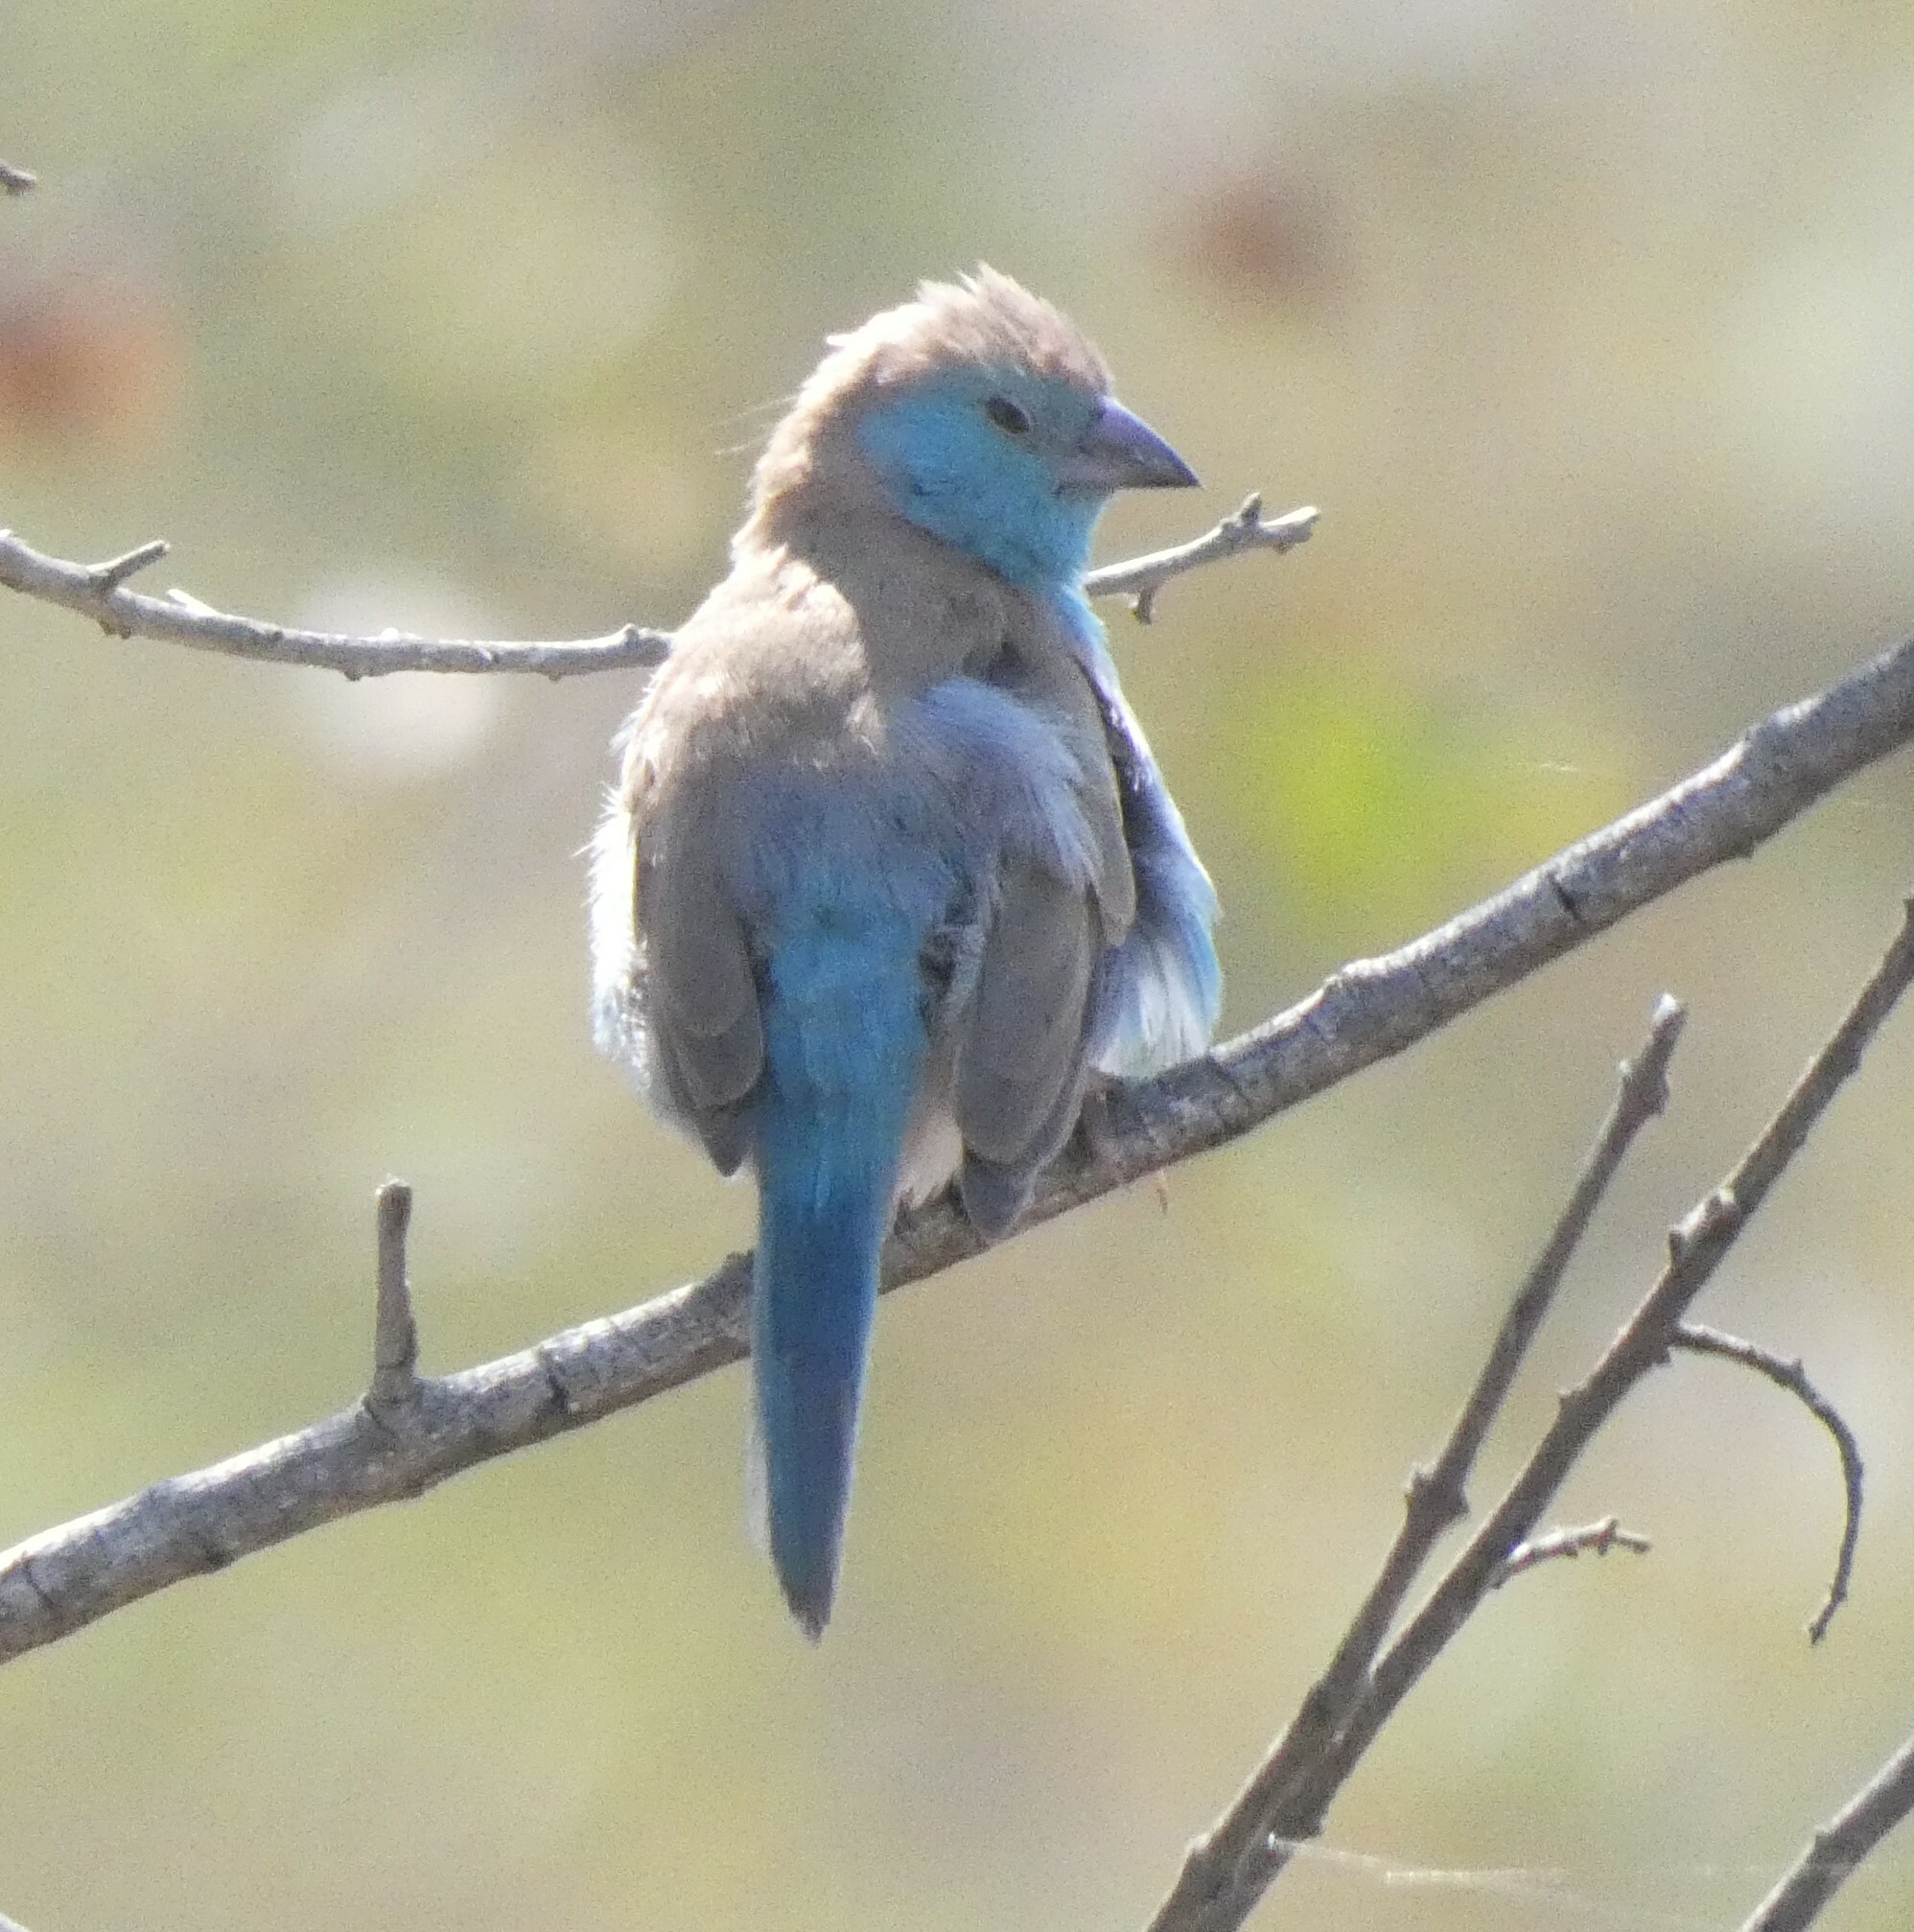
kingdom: Animalia
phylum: Chordata
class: Aves
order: Passeriformes
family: Estrildidae
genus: Uraeginthus
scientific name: Uraeginthus angolensis
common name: Blue waxbill
